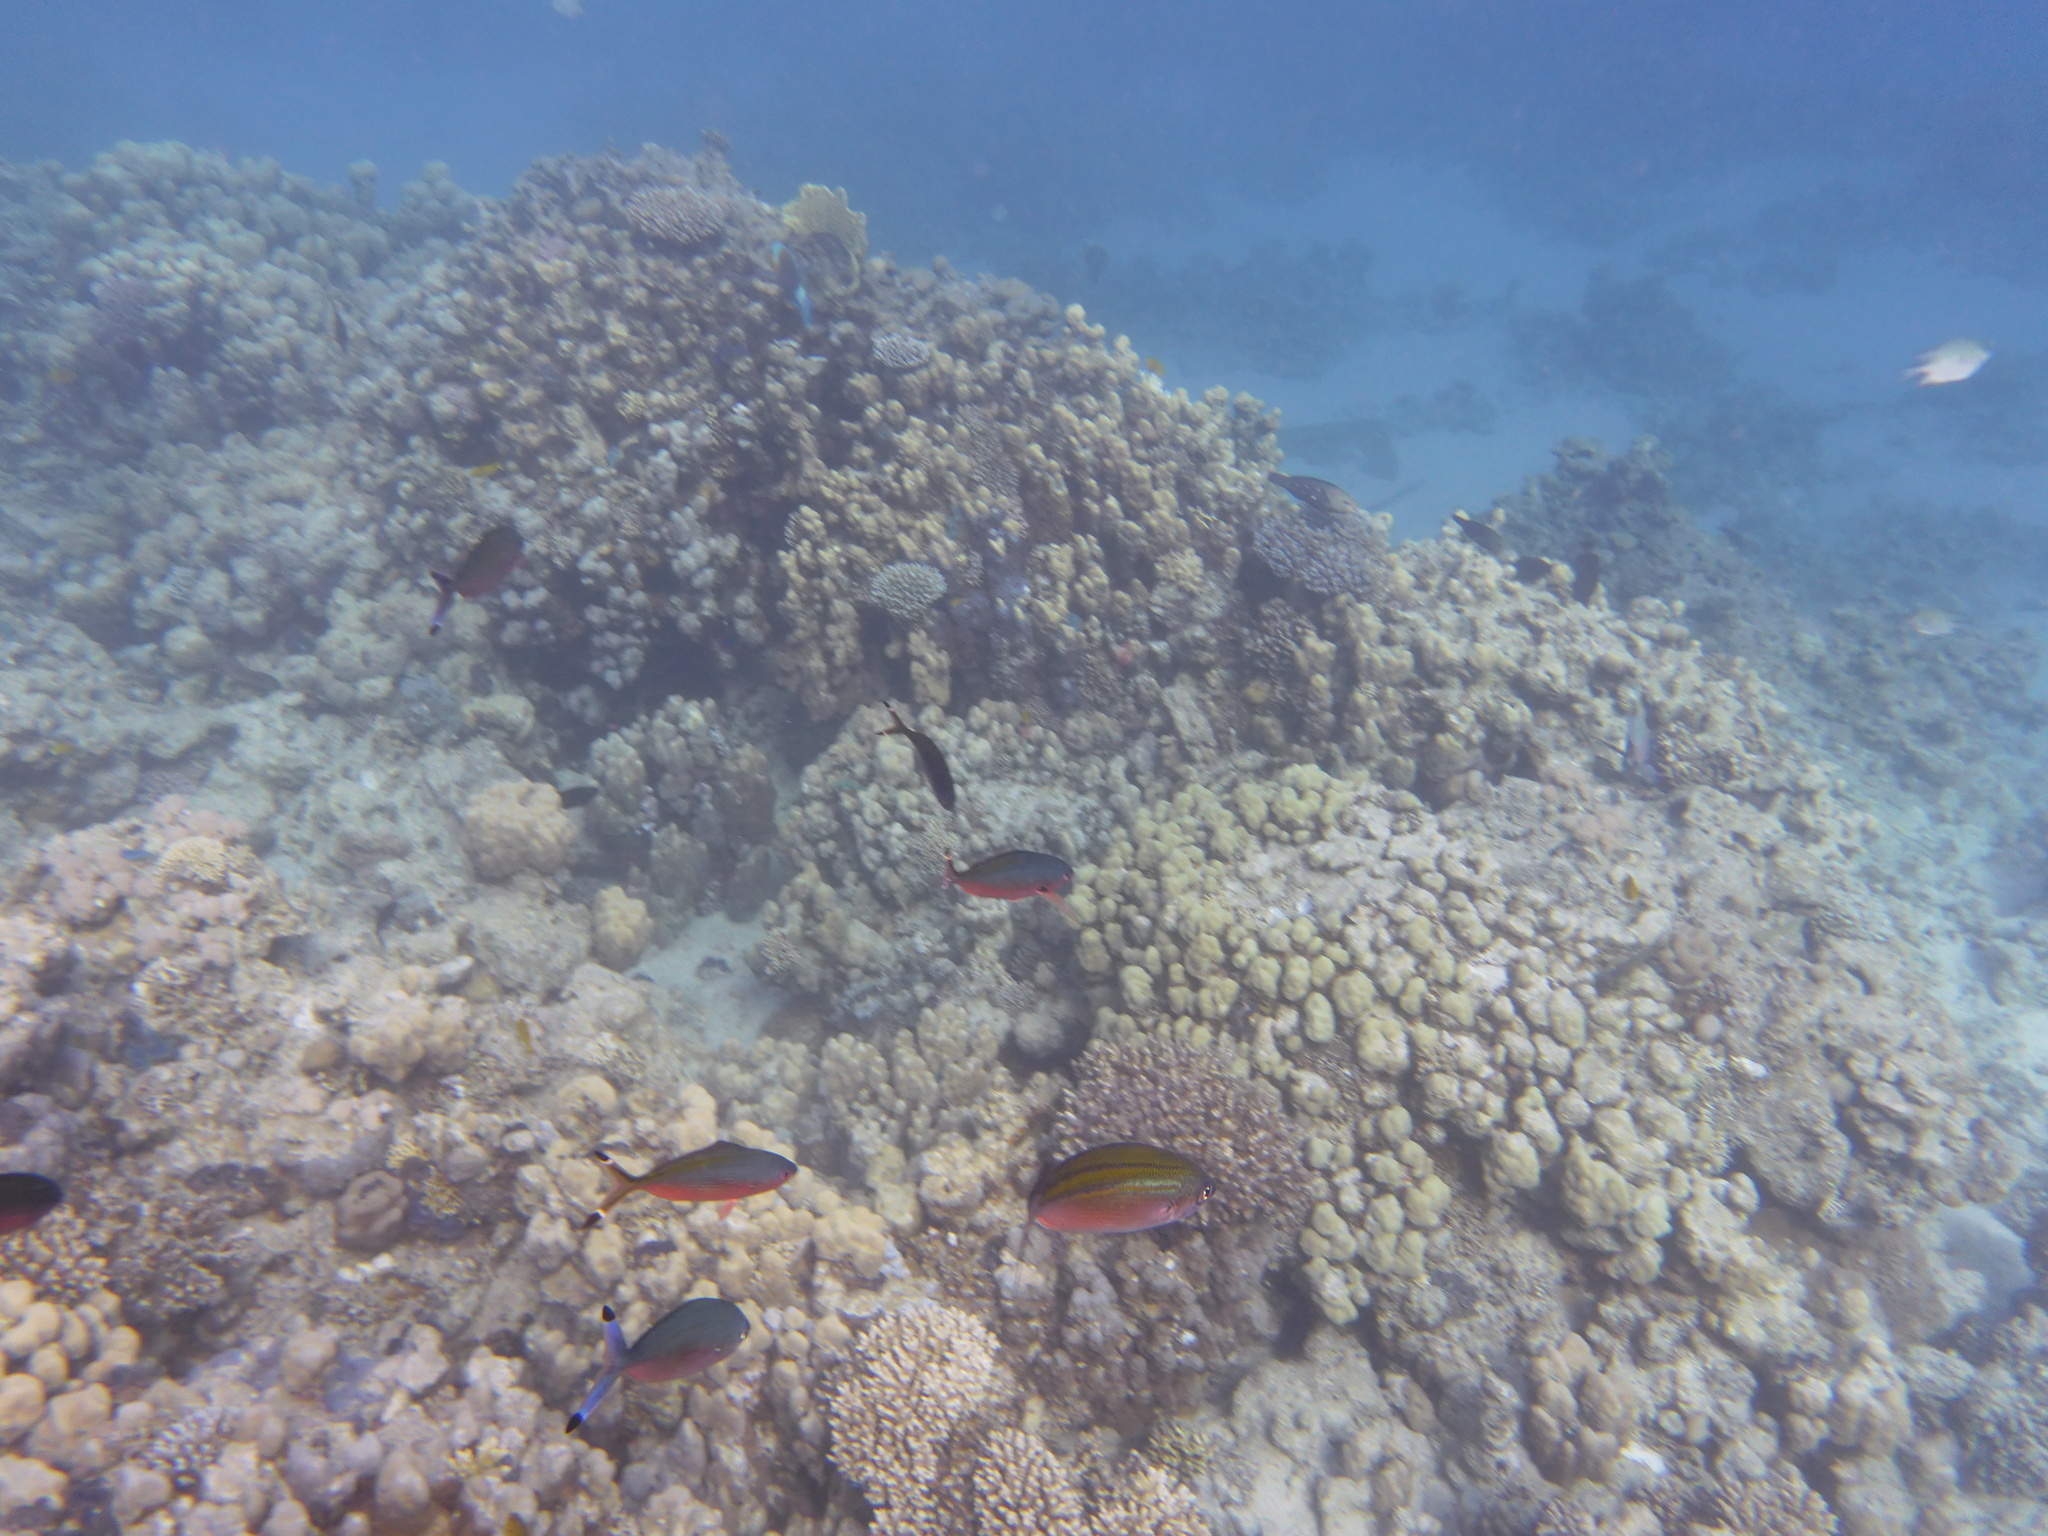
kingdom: Animalia
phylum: Chordata
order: Perciformes
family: Caesionidae
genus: Caesio
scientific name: Caesio suevica
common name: Suez fusilier
